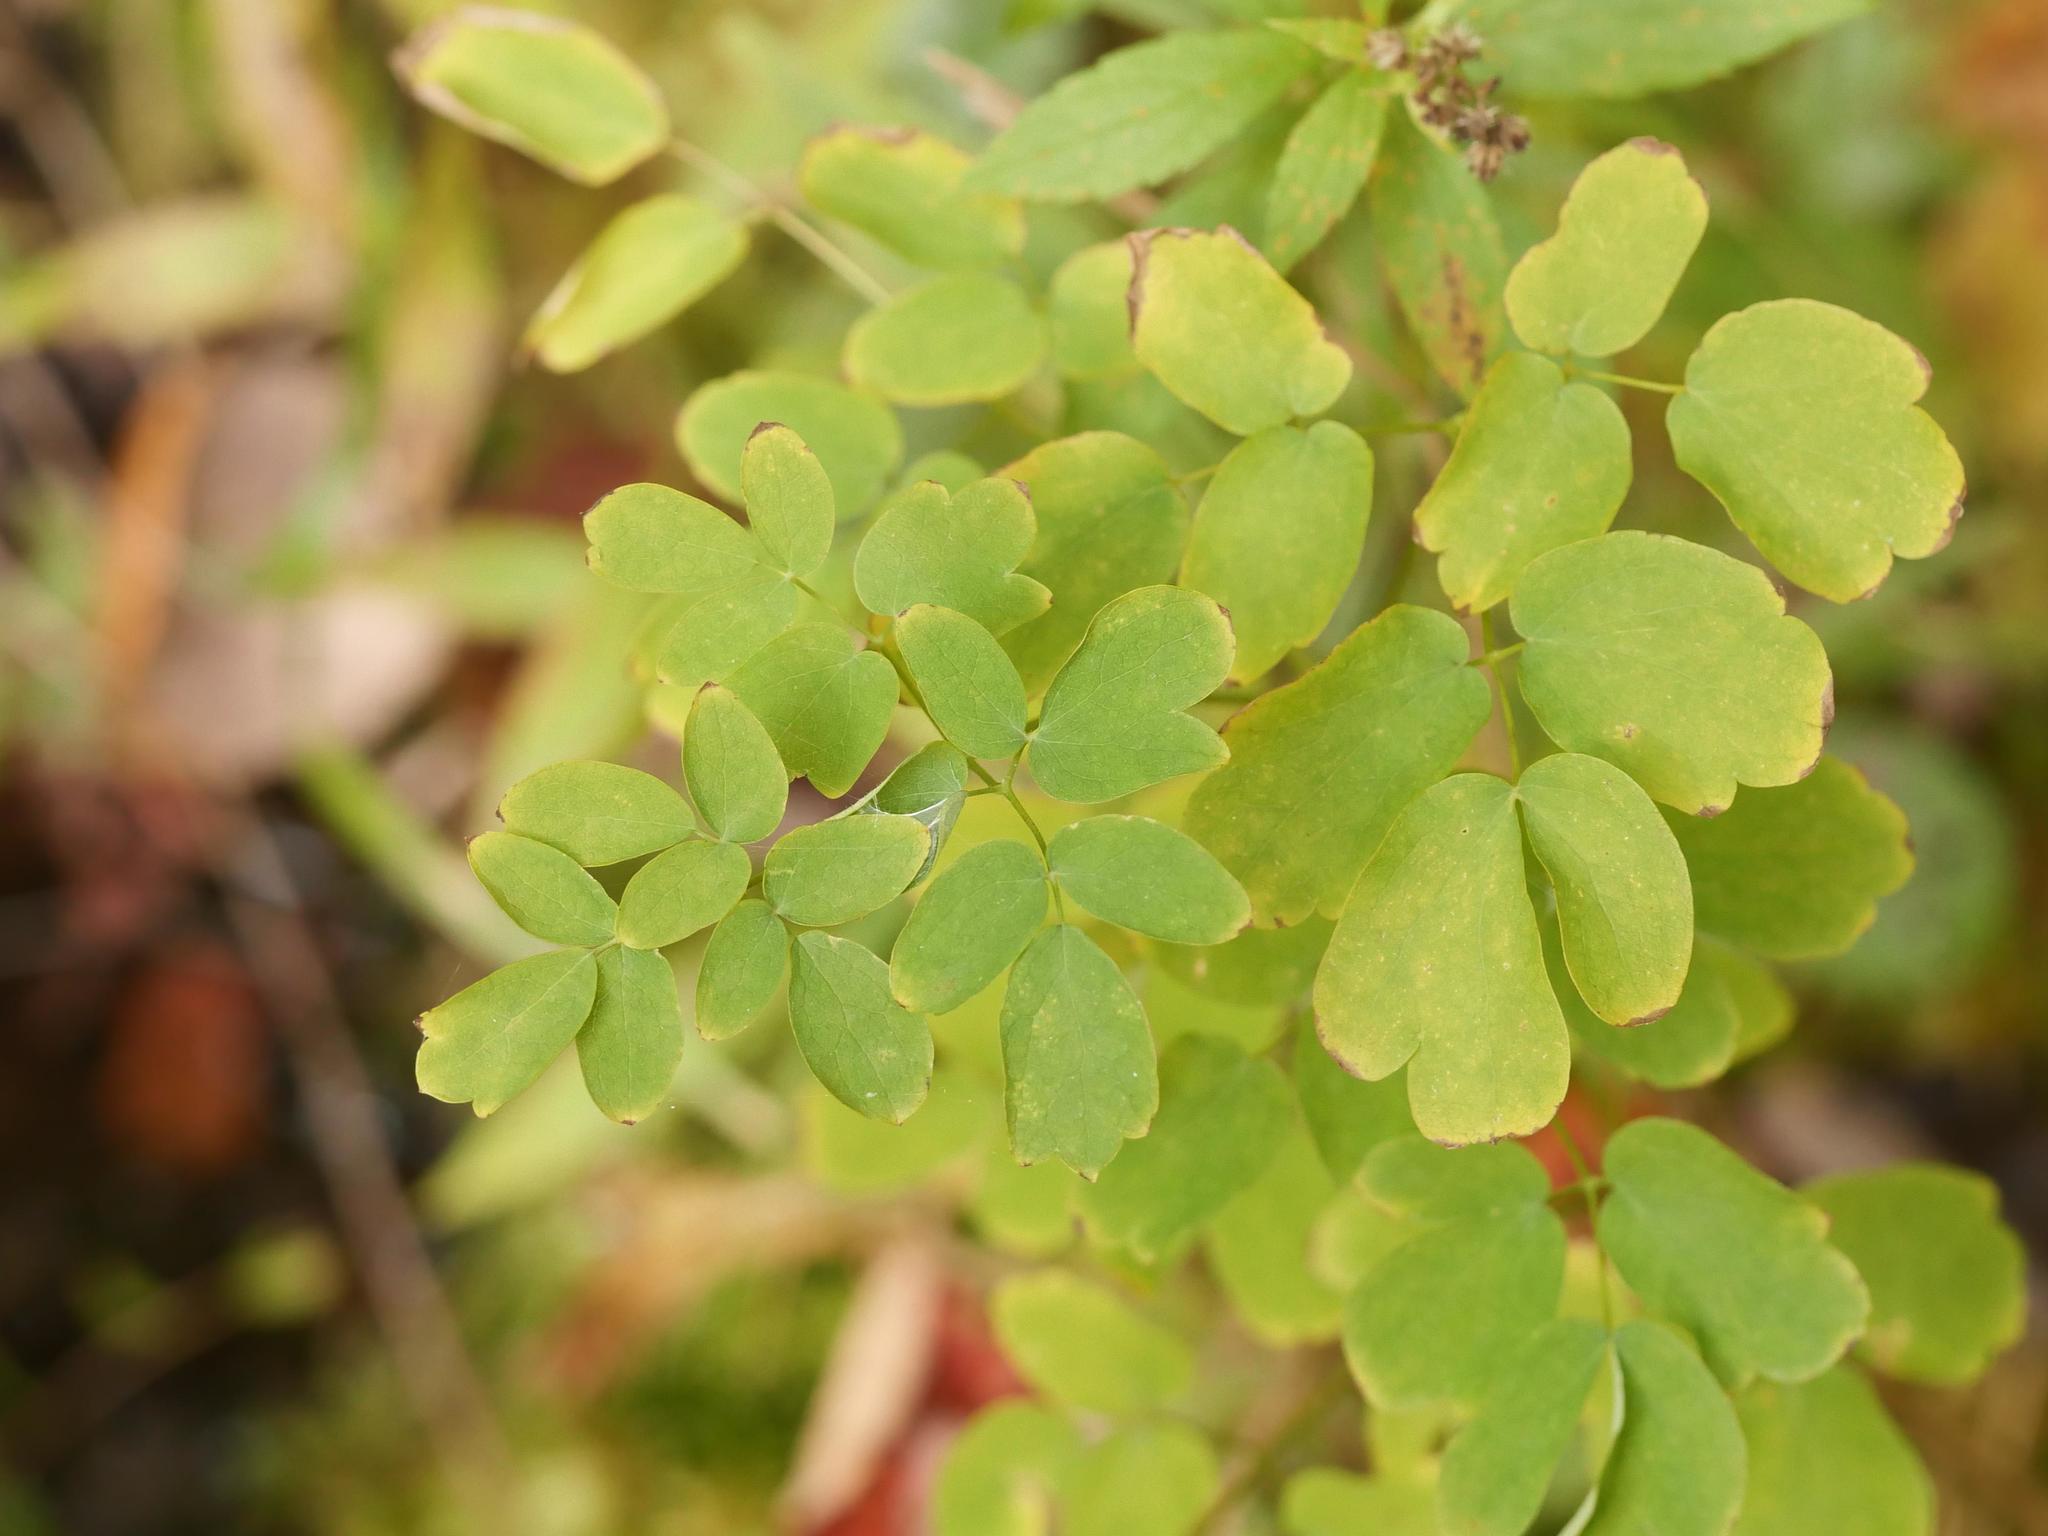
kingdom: Plantae
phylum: Tracheophyta
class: Magnoliopsida
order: Ranunculales
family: Ranunculaceae
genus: Thalictrum
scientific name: Thalictrum pubescens
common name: King-of-the-meadow
